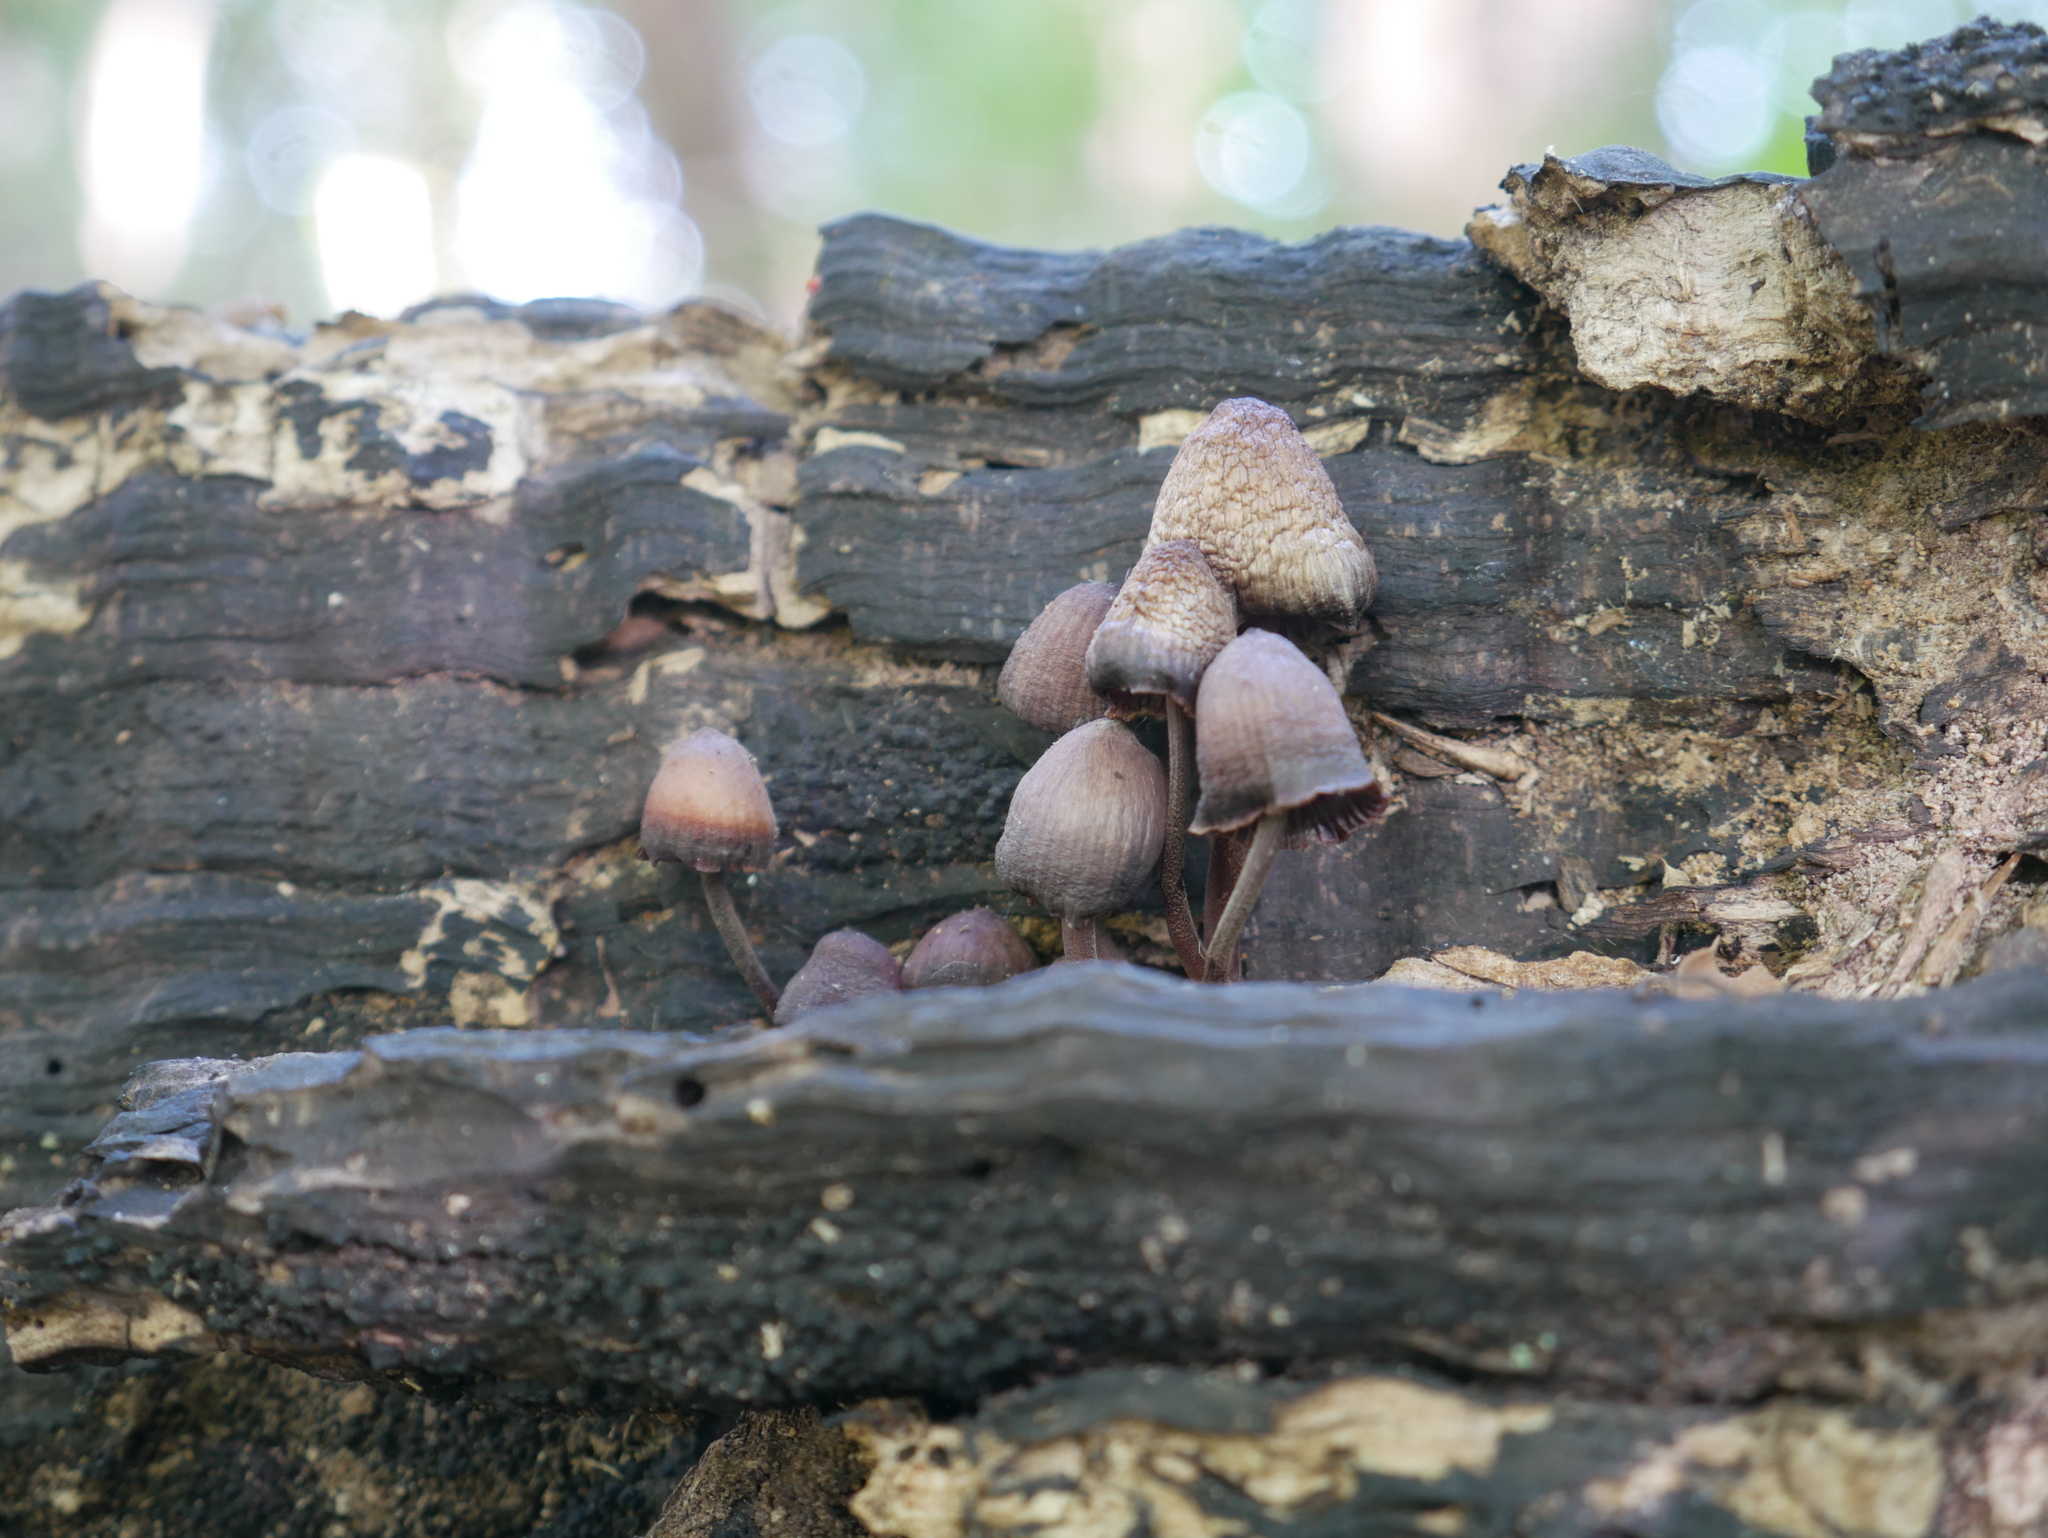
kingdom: Fungi
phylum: Basidiomycota
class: Agaricomycetes
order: Agaricales
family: Mycenaceae
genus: Mycena
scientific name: Mycena haematopus
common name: Burgundydrop bonnet
